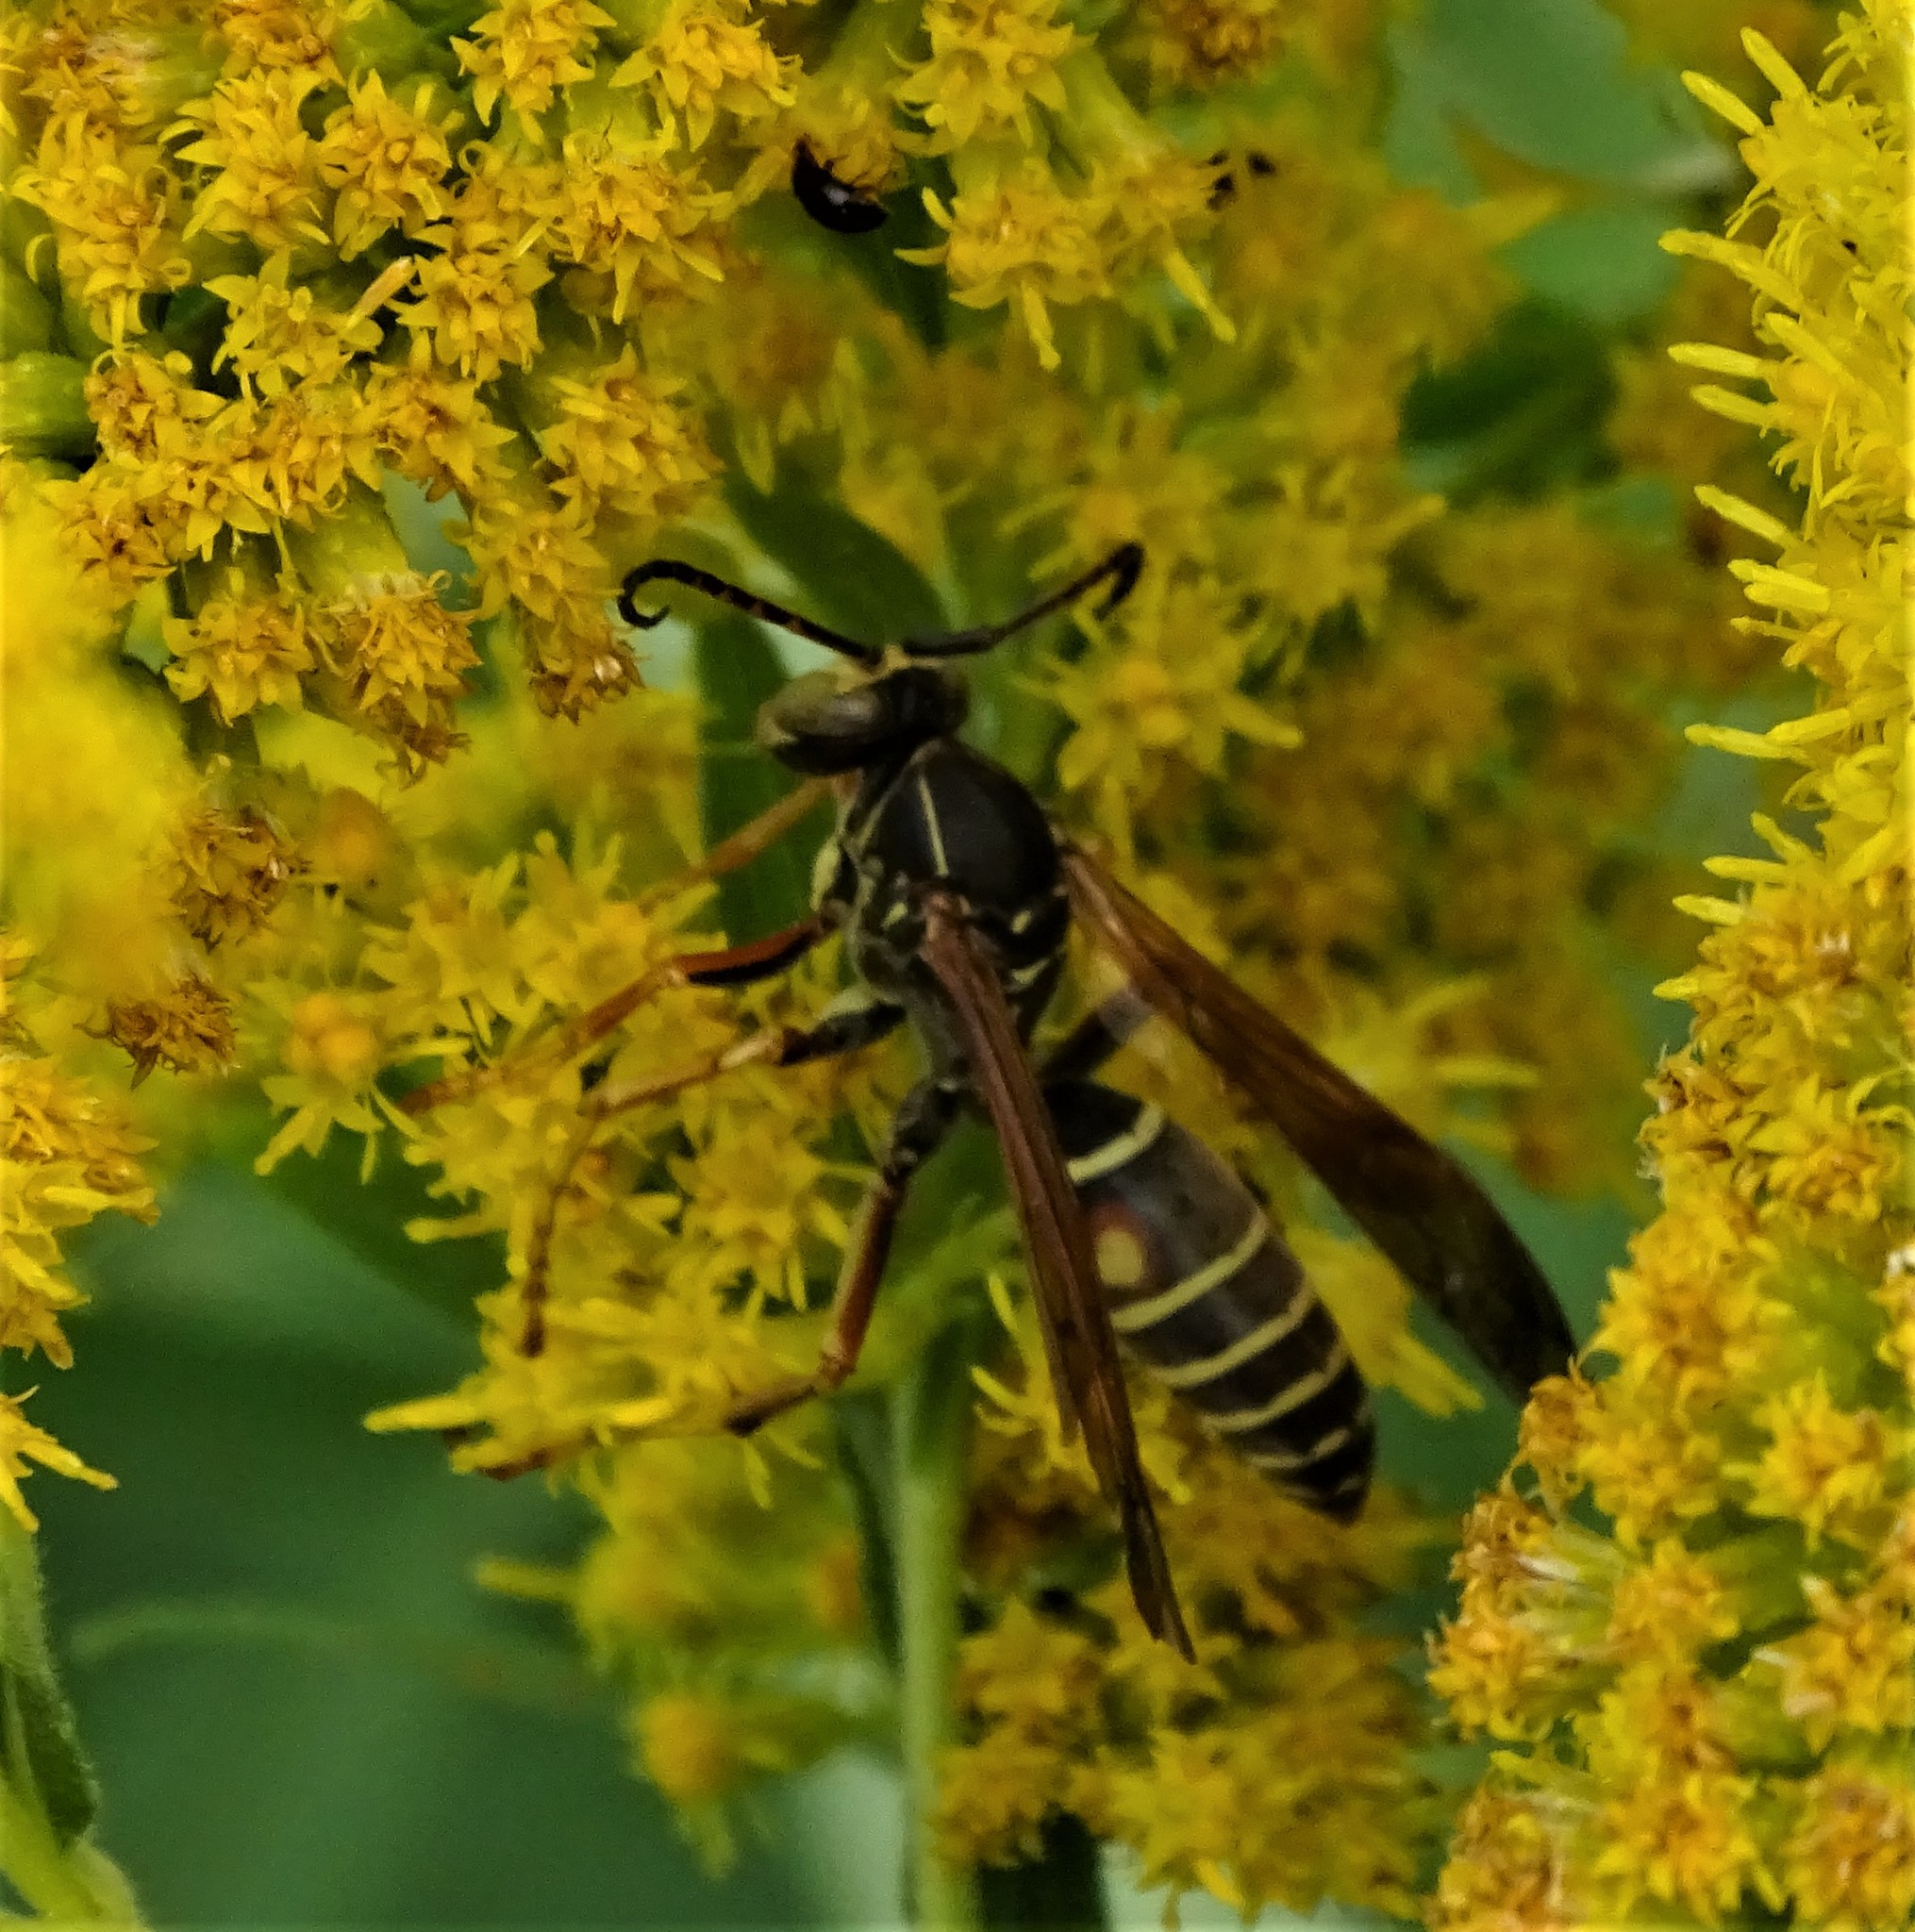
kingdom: Animalia
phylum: Arthropoda
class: Insecta
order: Hymenoptera
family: Eumenidae
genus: Polistes
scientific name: Polistes fuscatus
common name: Dark paper wasp
